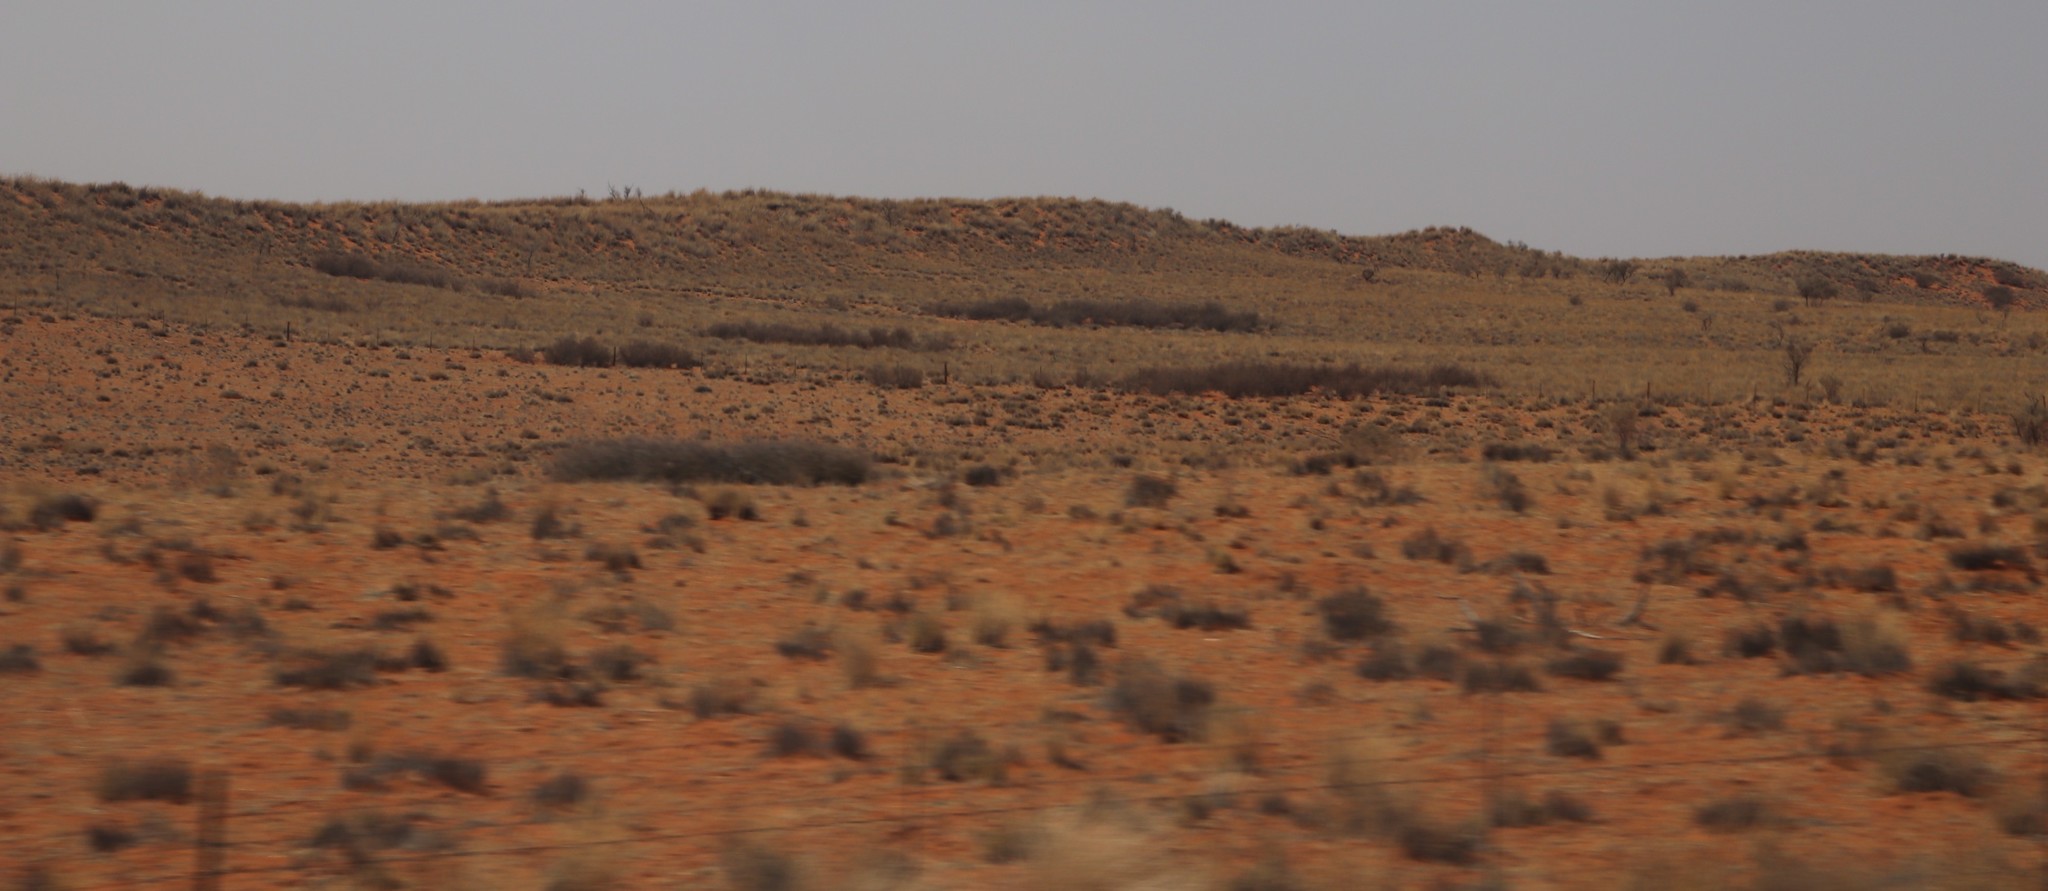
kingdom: Plantae
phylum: Tracheophyta
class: Magnoliopsida
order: Fabales
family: Fabaceae
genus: Vachellia
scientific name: Vachellia hebeclada
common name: Candle thorn
